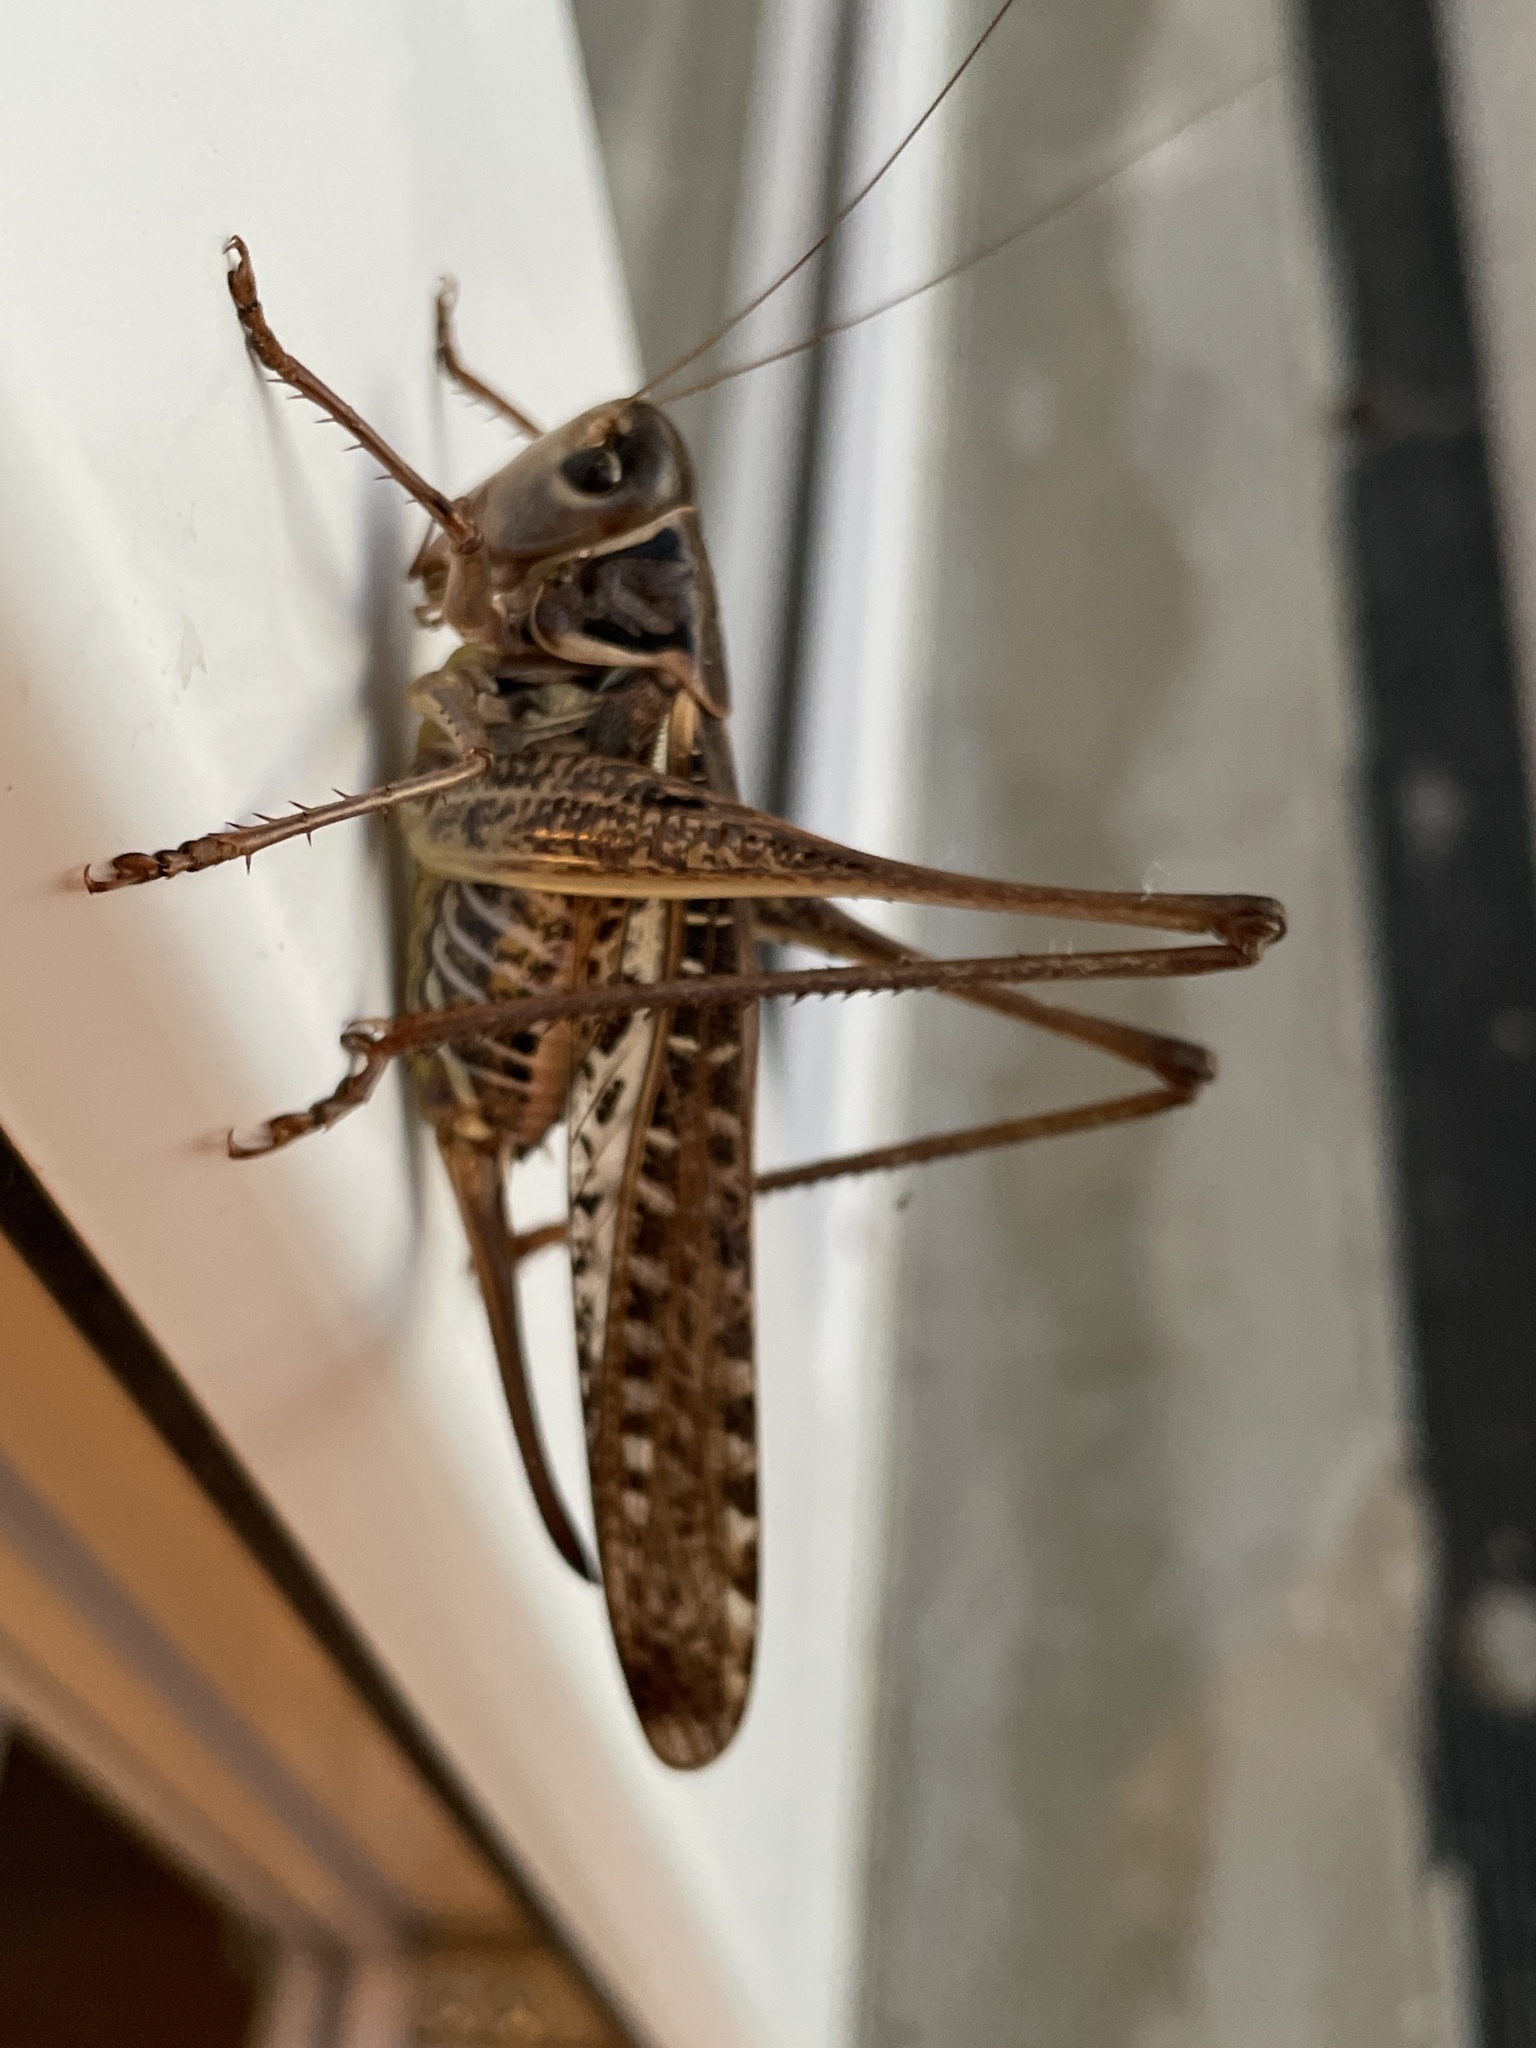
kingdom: Animalia
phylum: Arthropoda
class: Insecta
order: Orthoptera
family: Tettigoniidae
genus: Decticus
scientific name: Decticus albifrons
